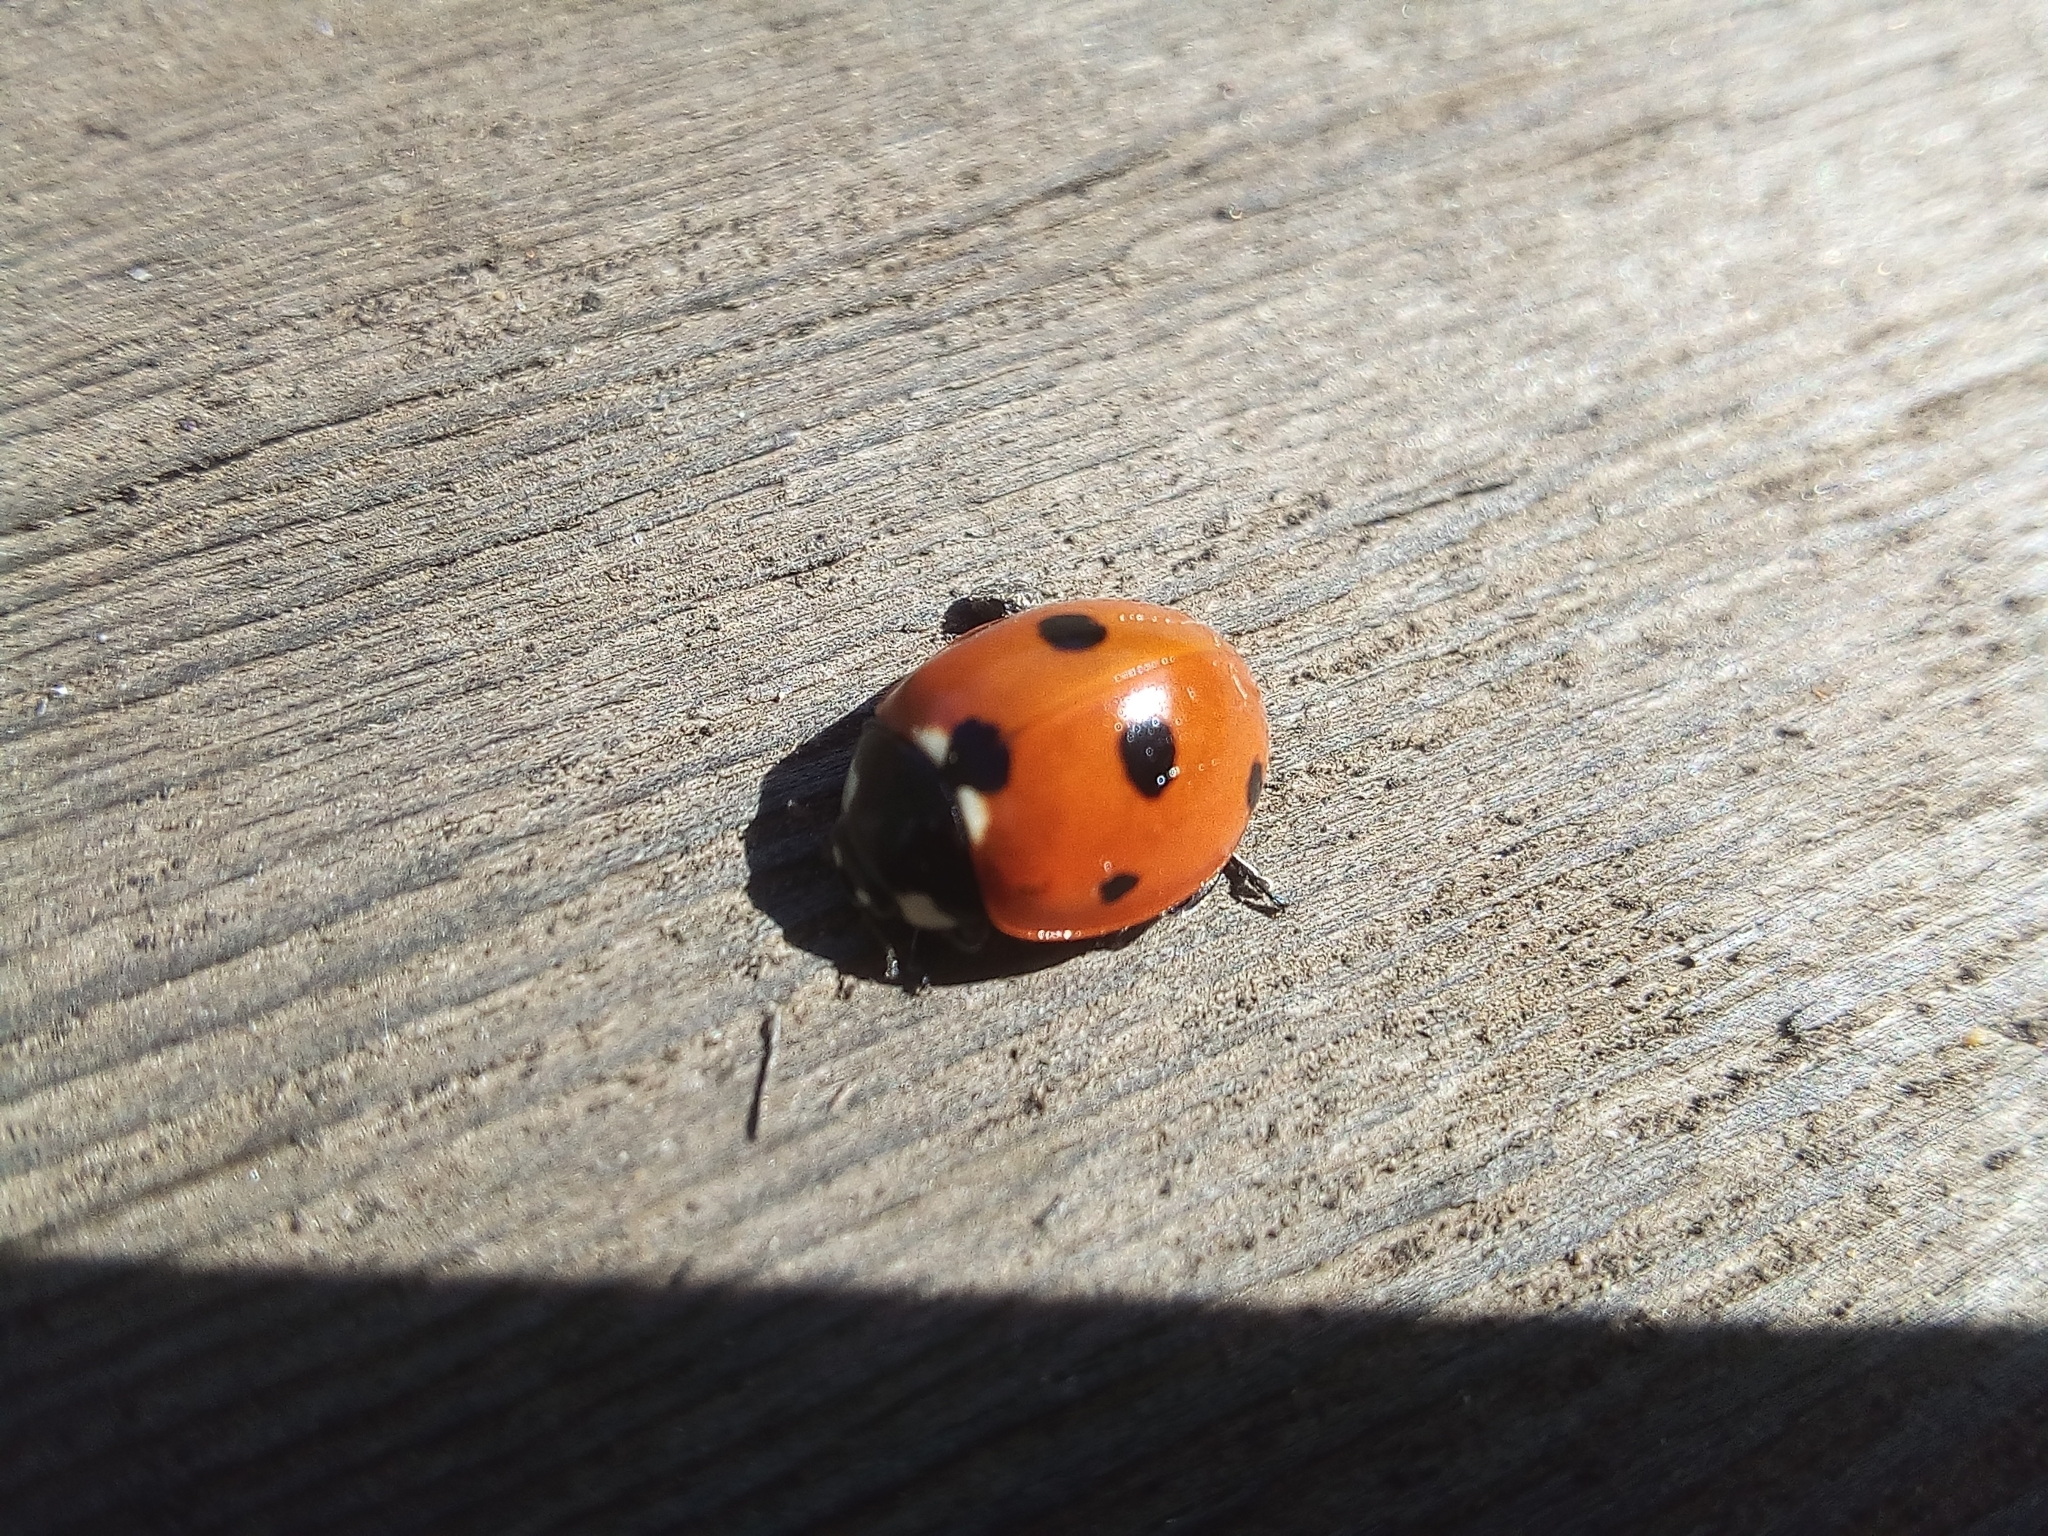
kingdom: Animalia
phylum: Arthropoda
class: Insecta
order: Coleoptera
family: Coccinellidae
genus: Coccinella
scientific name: Coccinella septempunctata
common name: Sevenspotted lady beetle
